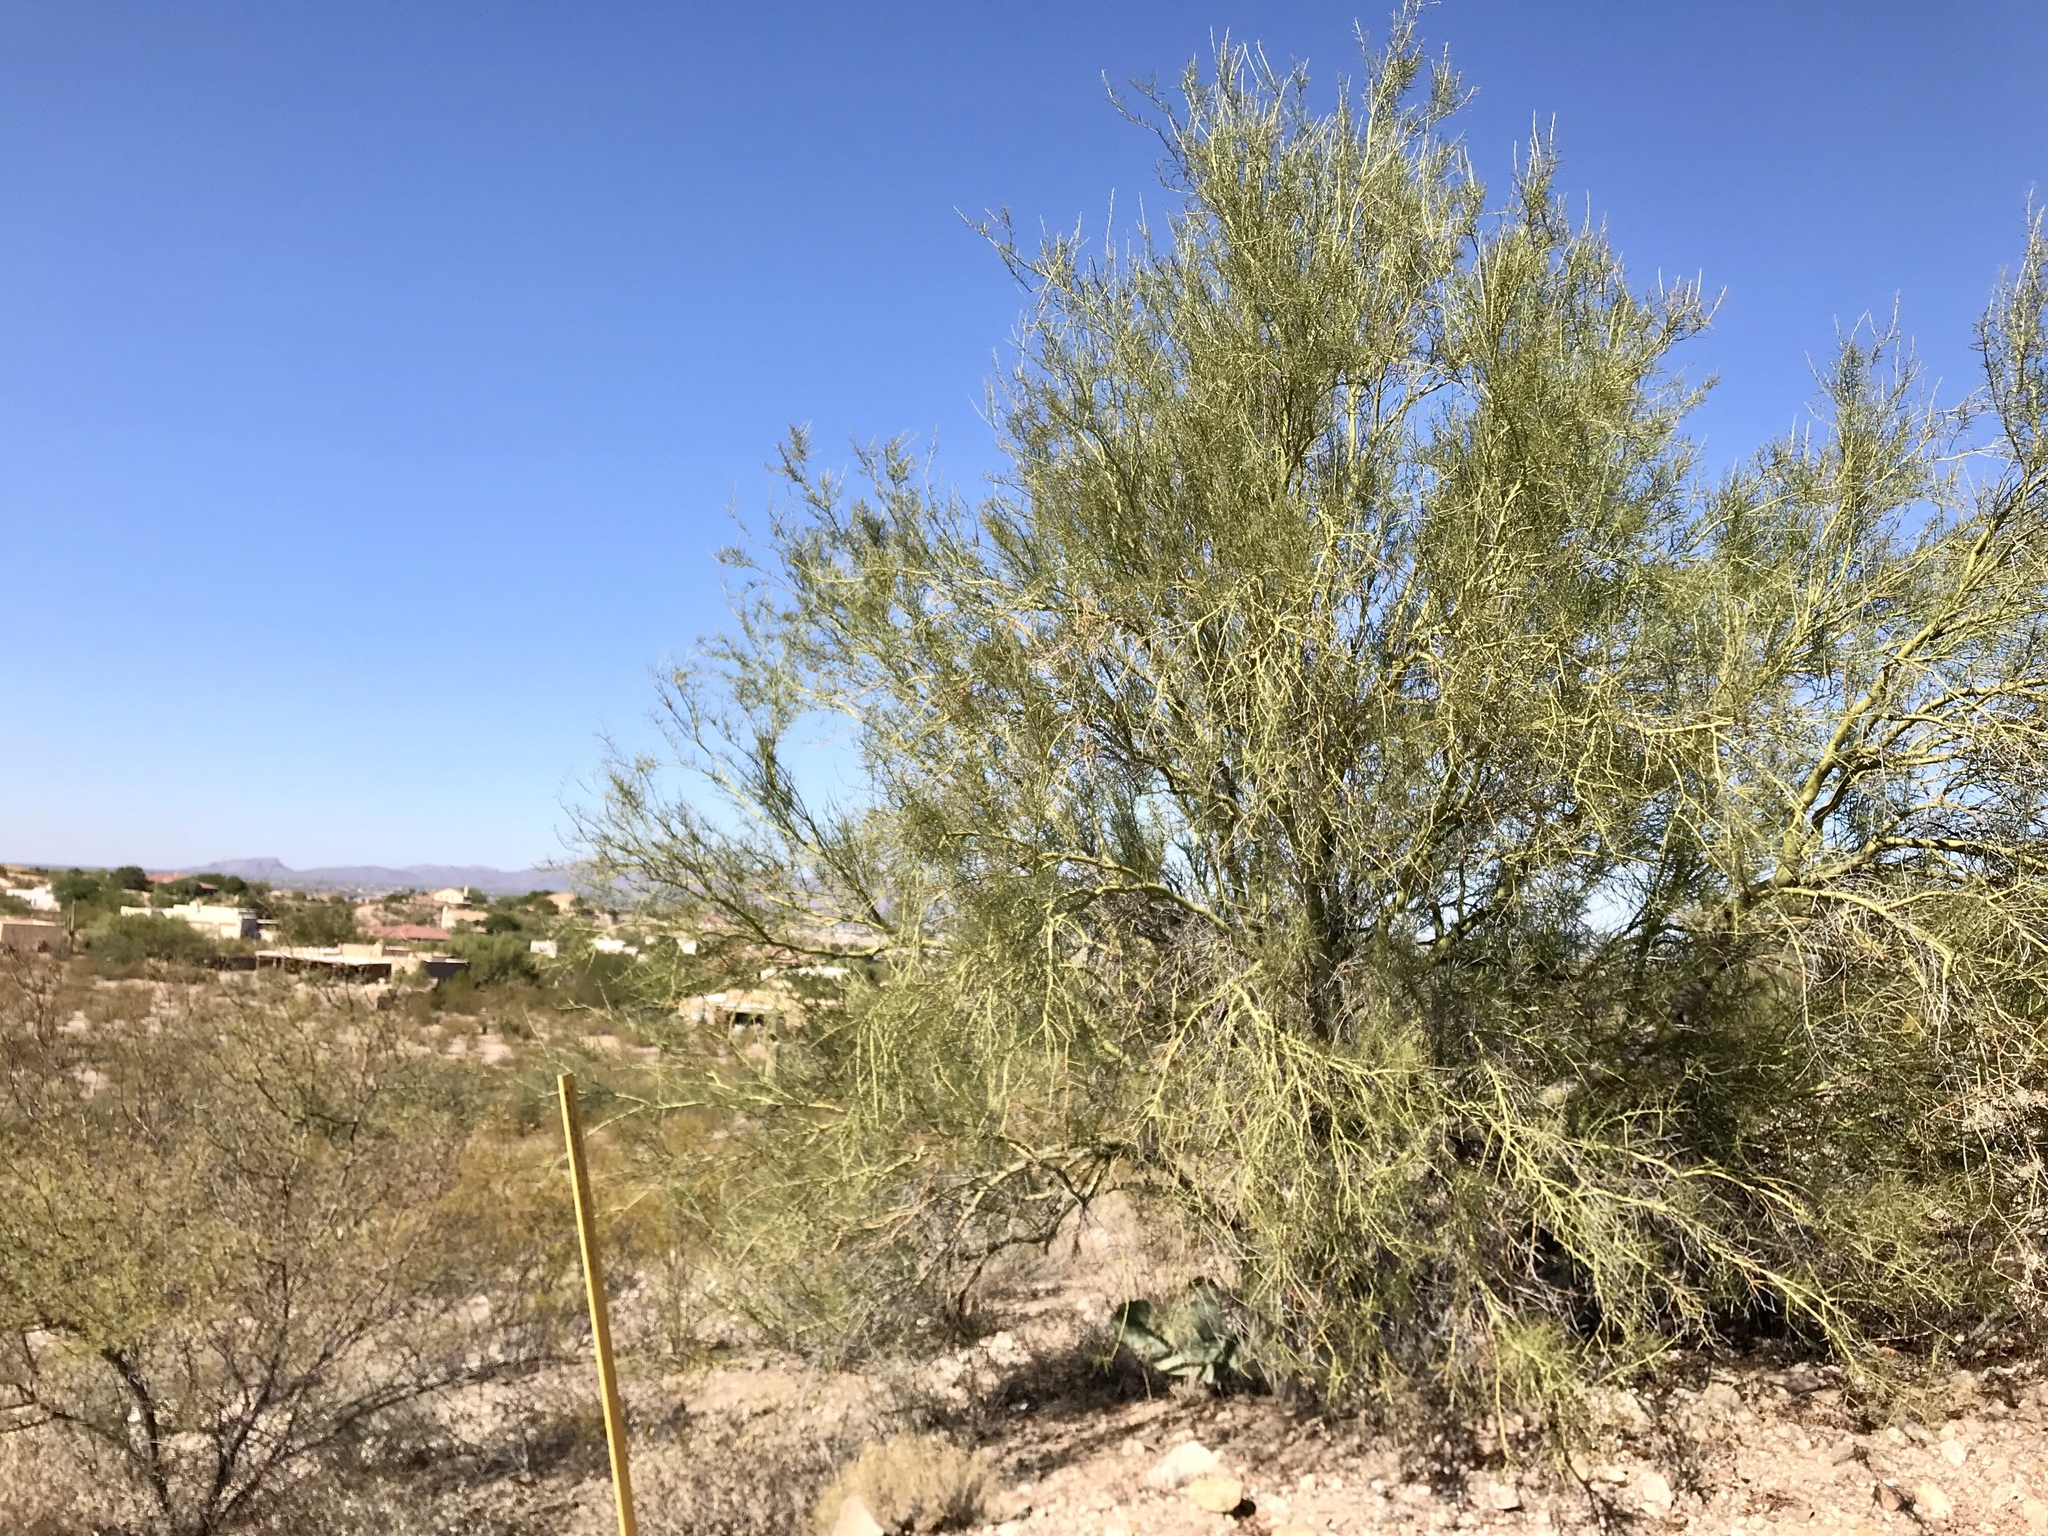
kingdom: Plantae
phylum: Tracheophyta
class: Magnoliopsida
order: Fabales
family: Fabaceae
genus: Parkinsonia
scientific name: Parkinsonia florida
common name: Blue paloverde
